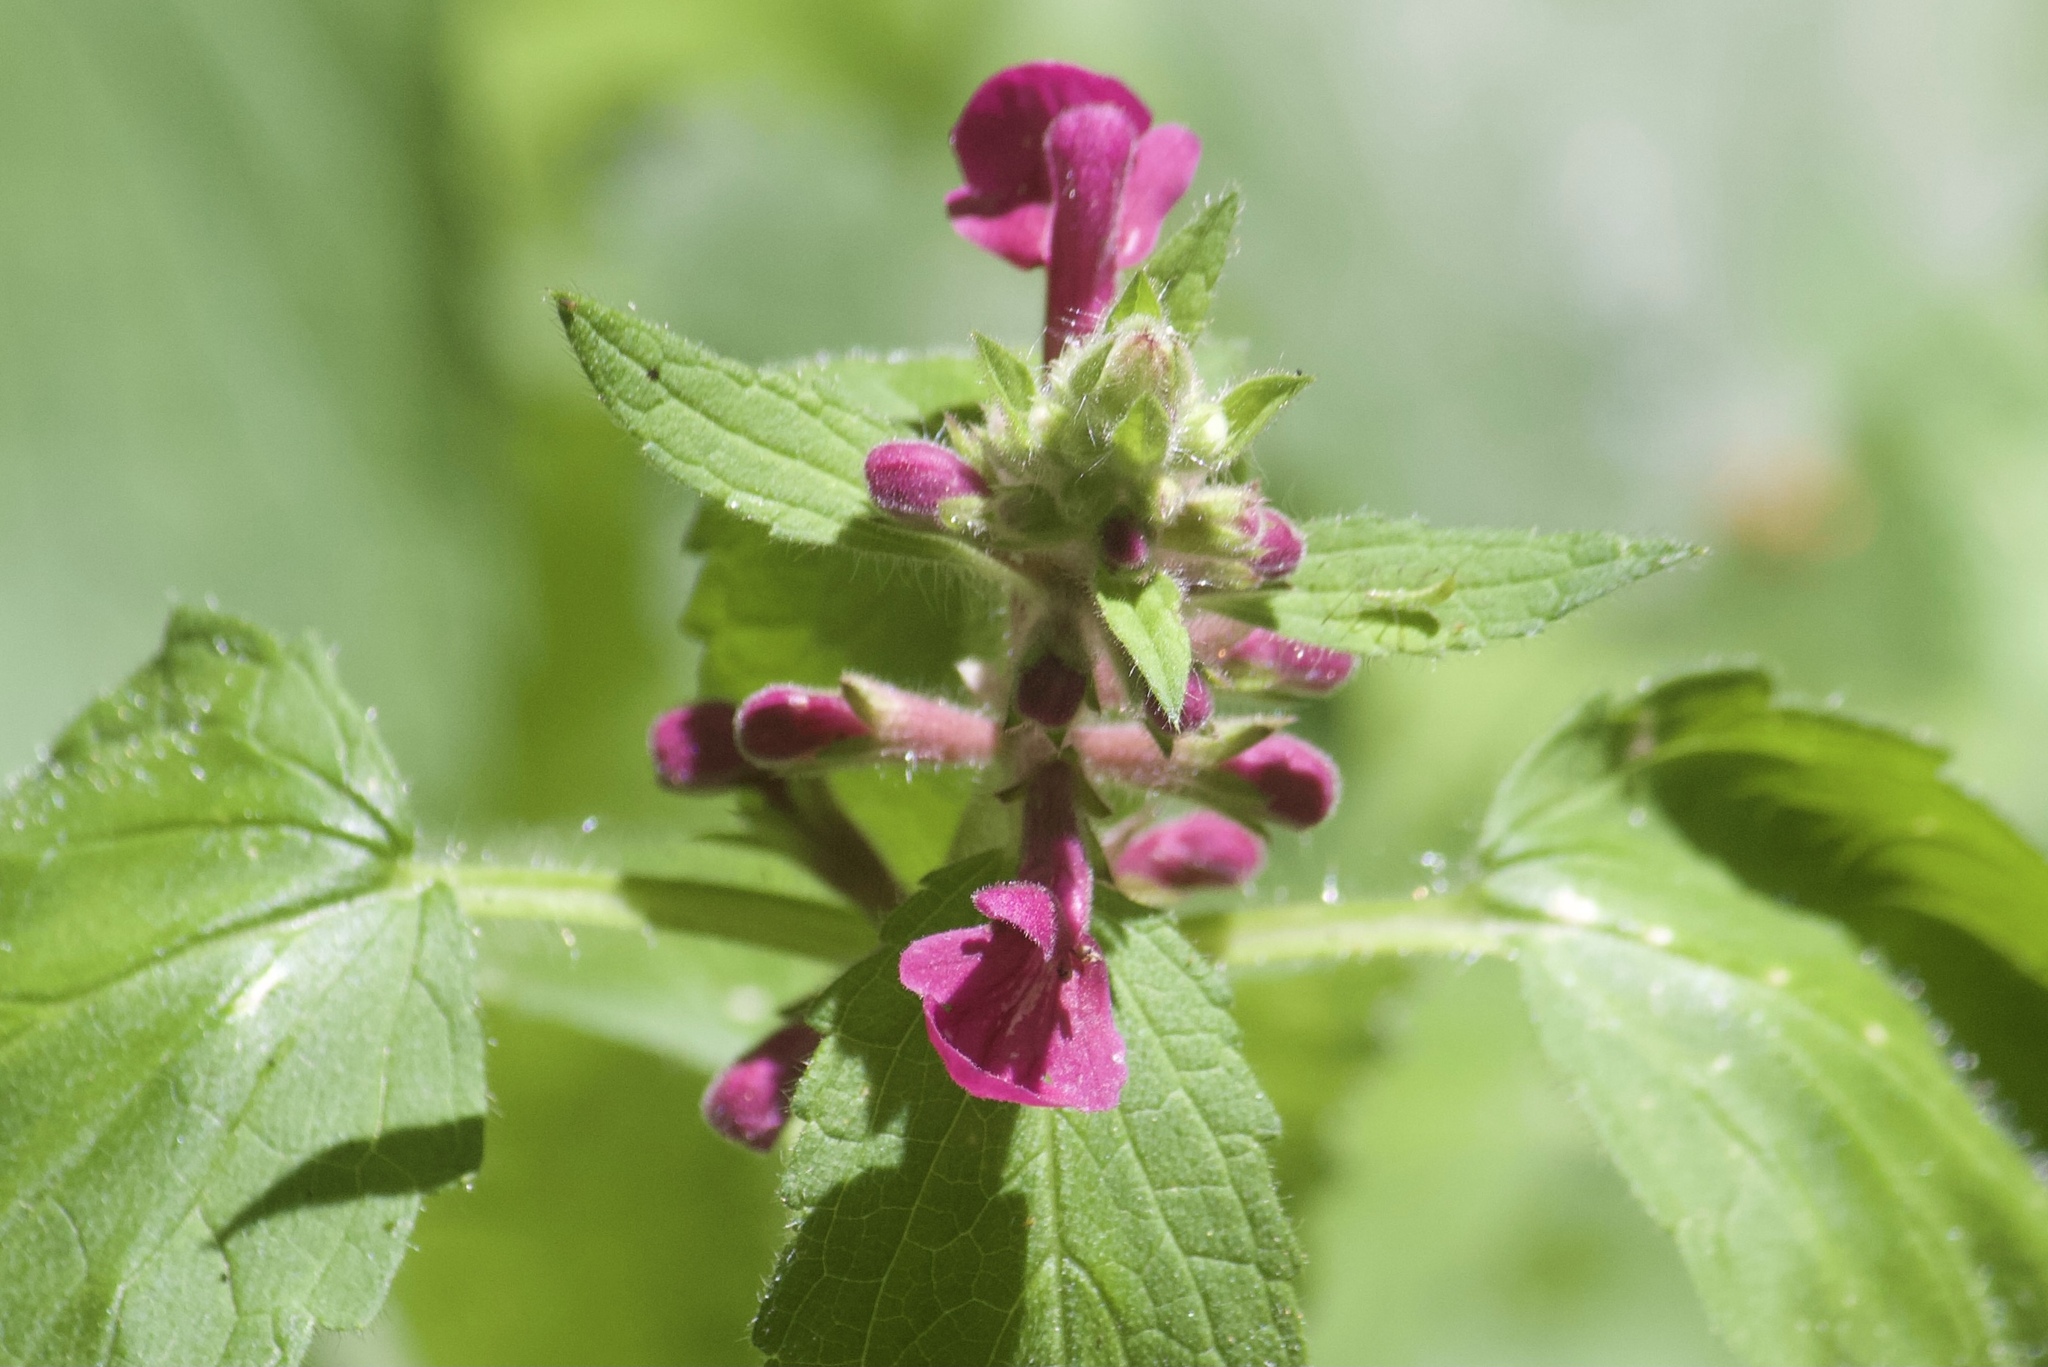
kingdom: Plantae
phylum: Tracheophyta
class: Magnoliopsida
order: Lamiales
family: Lamiaceae
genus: Stachys
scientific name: Stachys chamissonis
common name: Coastal hedge-nettle
